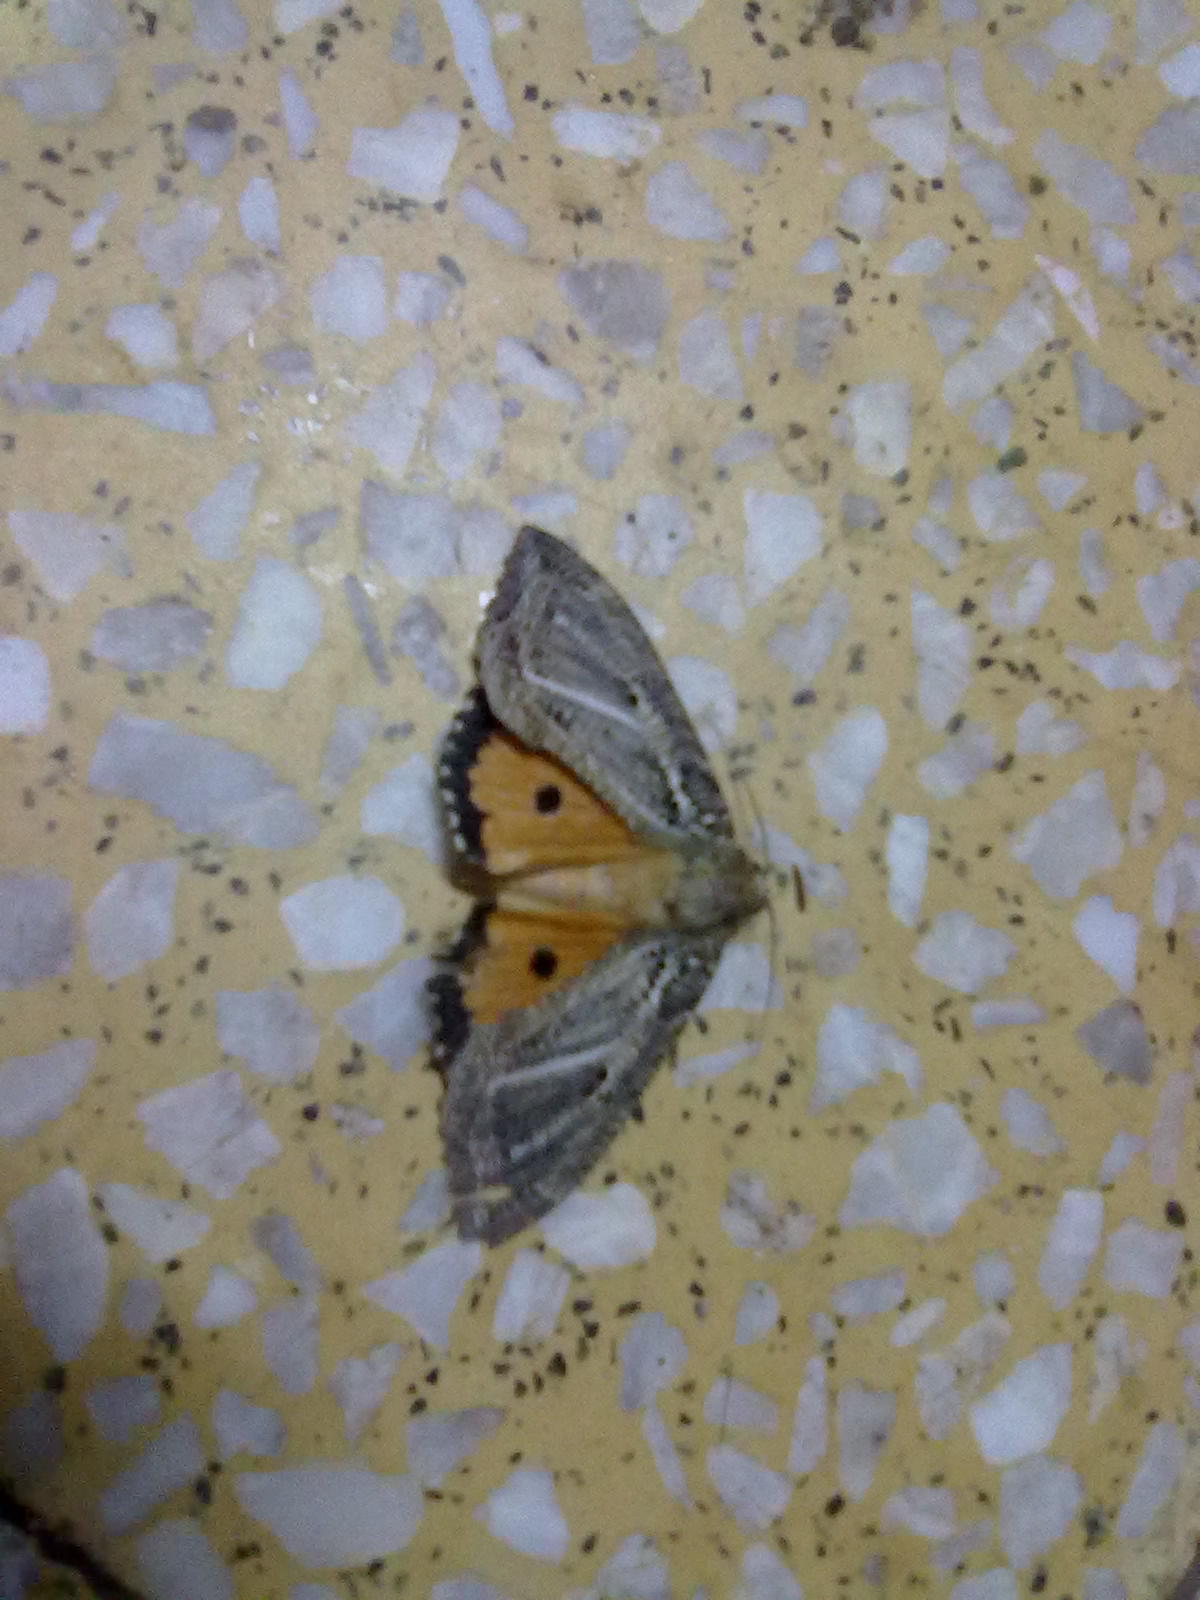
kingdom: Animalia
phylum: Arthropoda
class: Insecta
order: Lepidoptera
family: Erebidae
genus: Eudocima
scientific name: Eudocima materna
